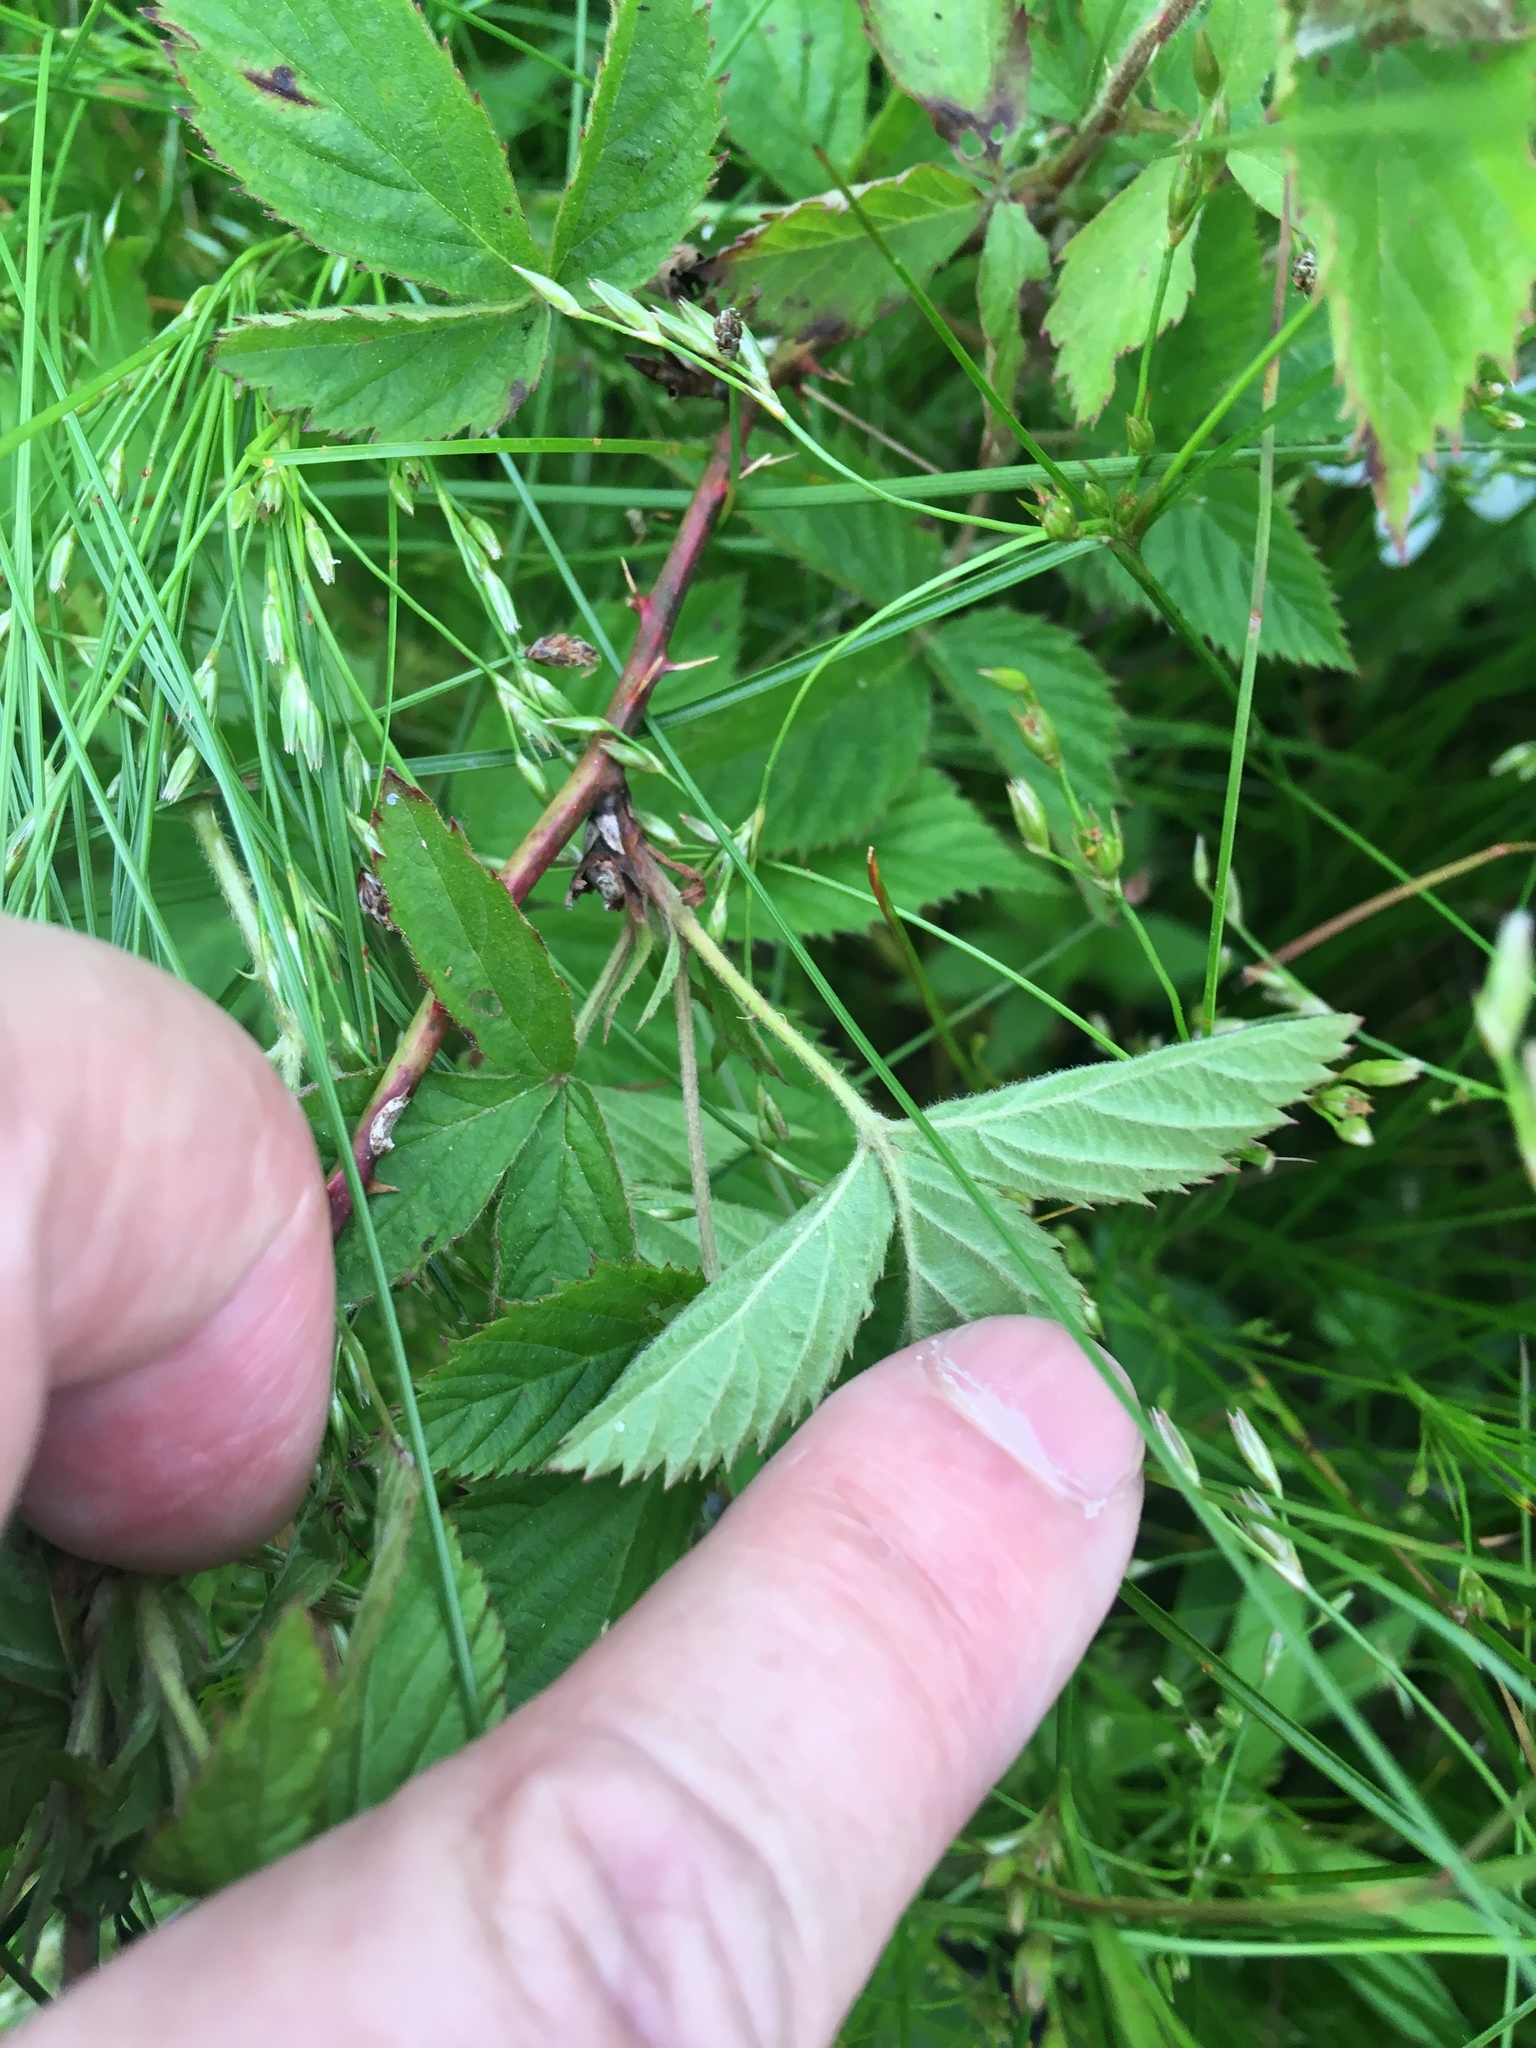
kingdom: Plantae
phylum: Tracheophyta
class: Magnoliopsida
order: Rosales
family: Rosaceae
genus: Rubus
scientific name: Rubus pensilvanicus
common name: Pennsylvania blackberry
